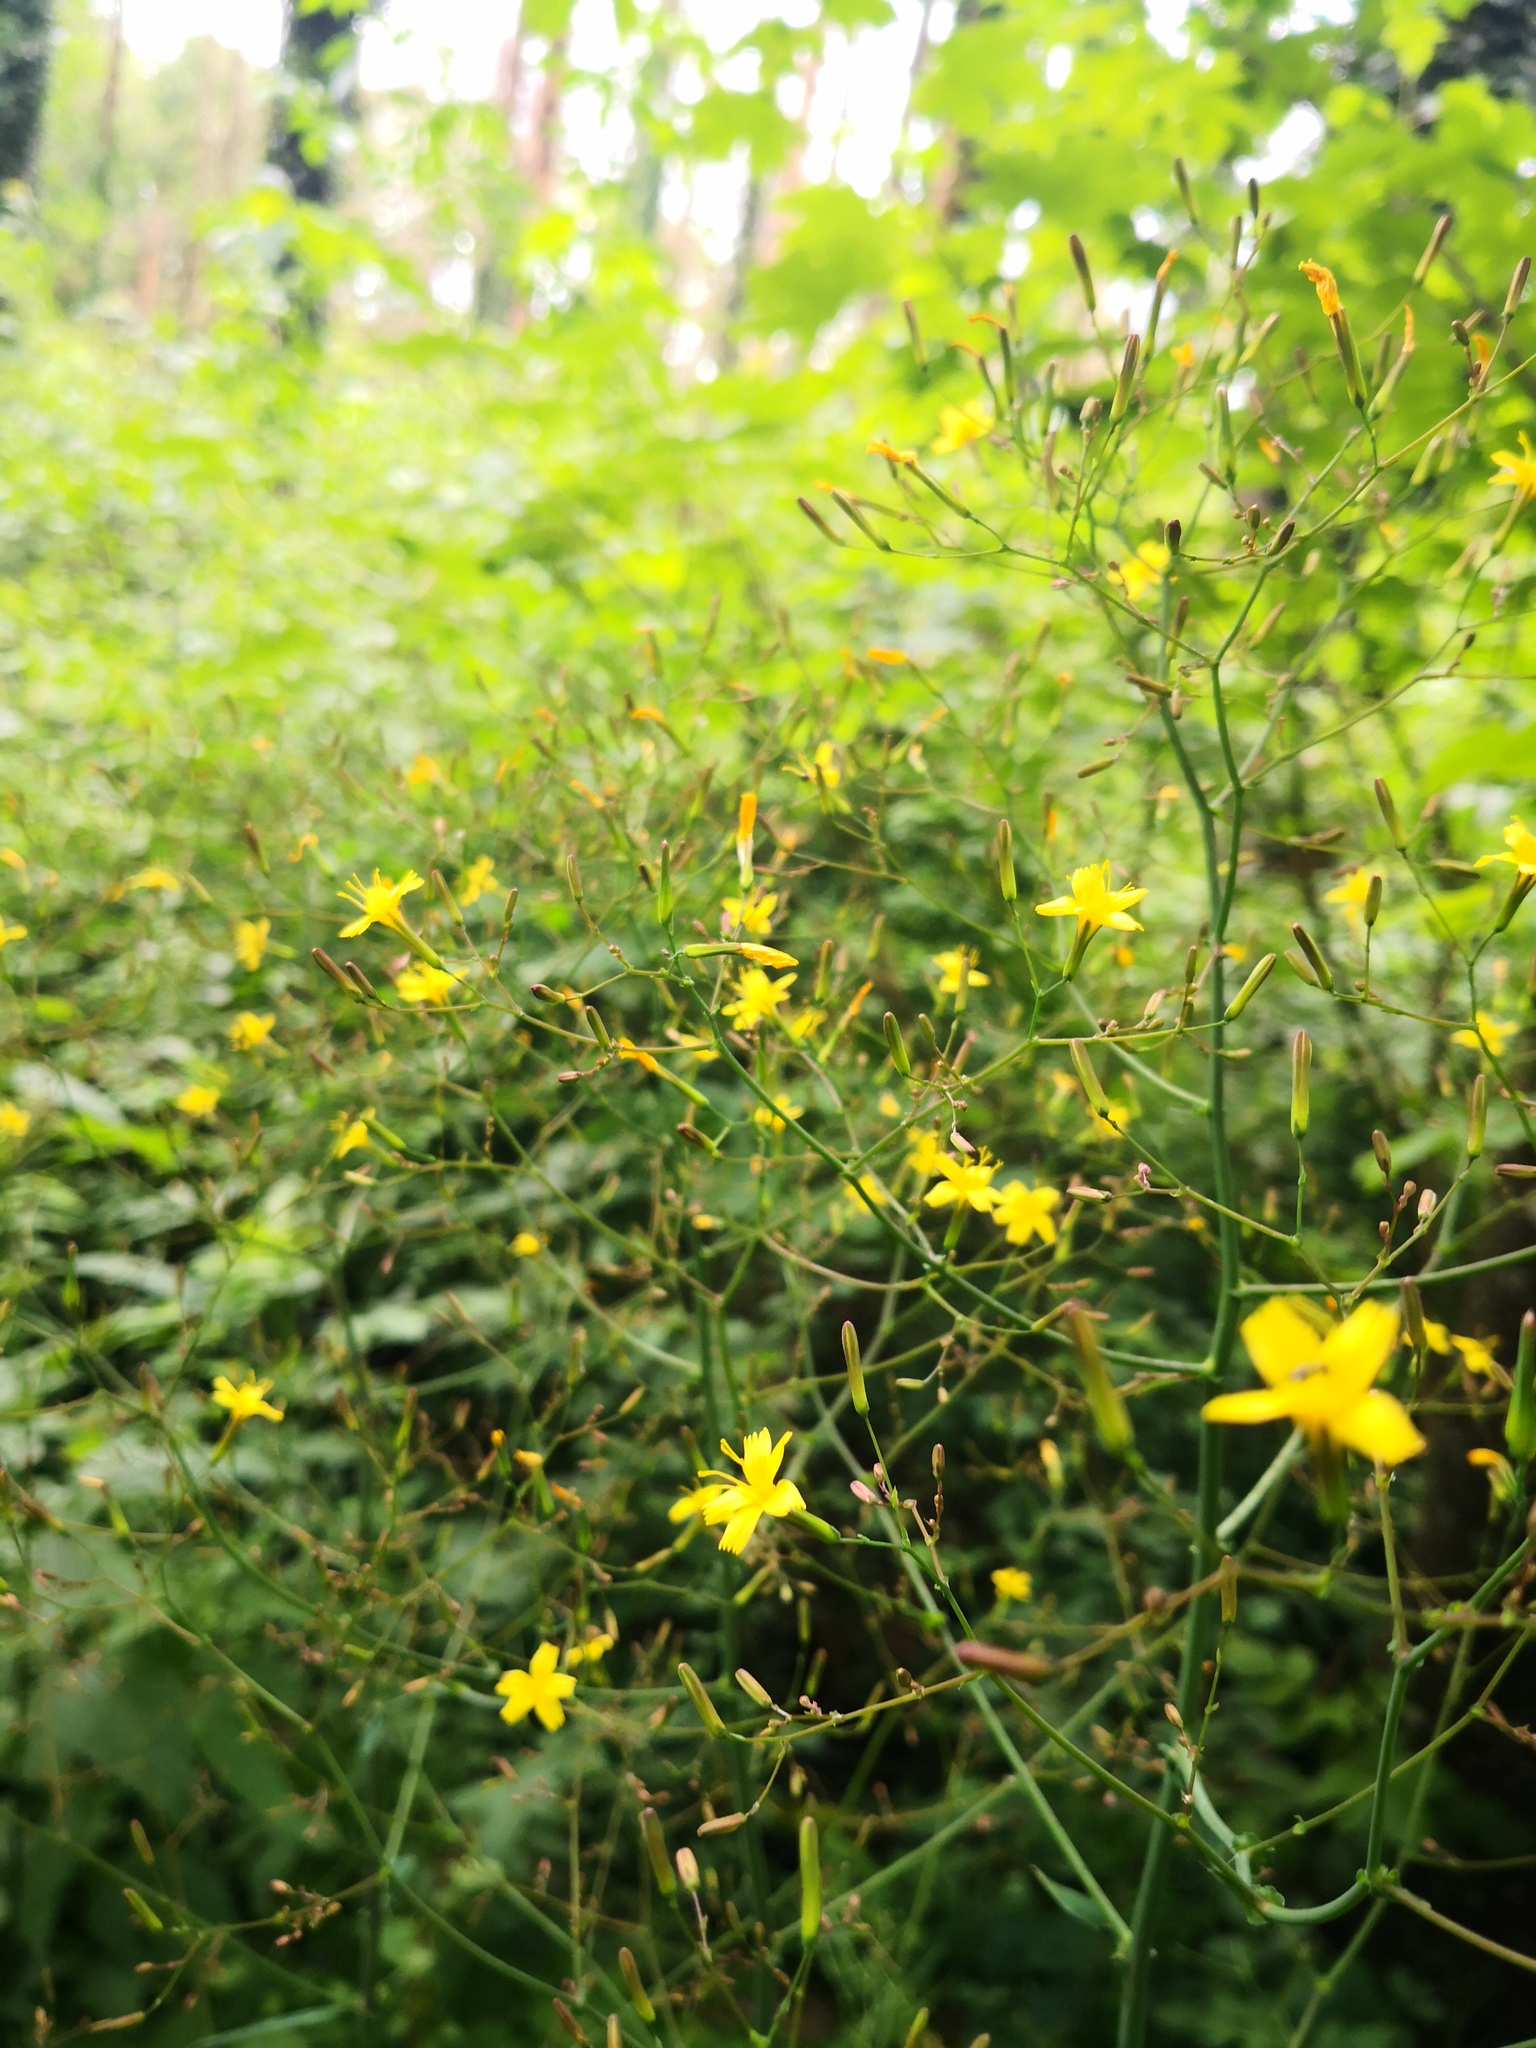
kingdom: Plantae
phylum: Tracheophyta
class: Magnoliopsida
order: Asterales
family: Asteraceae
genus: Mycelis
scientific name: Mycelis muralis
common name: Wall lettuce
